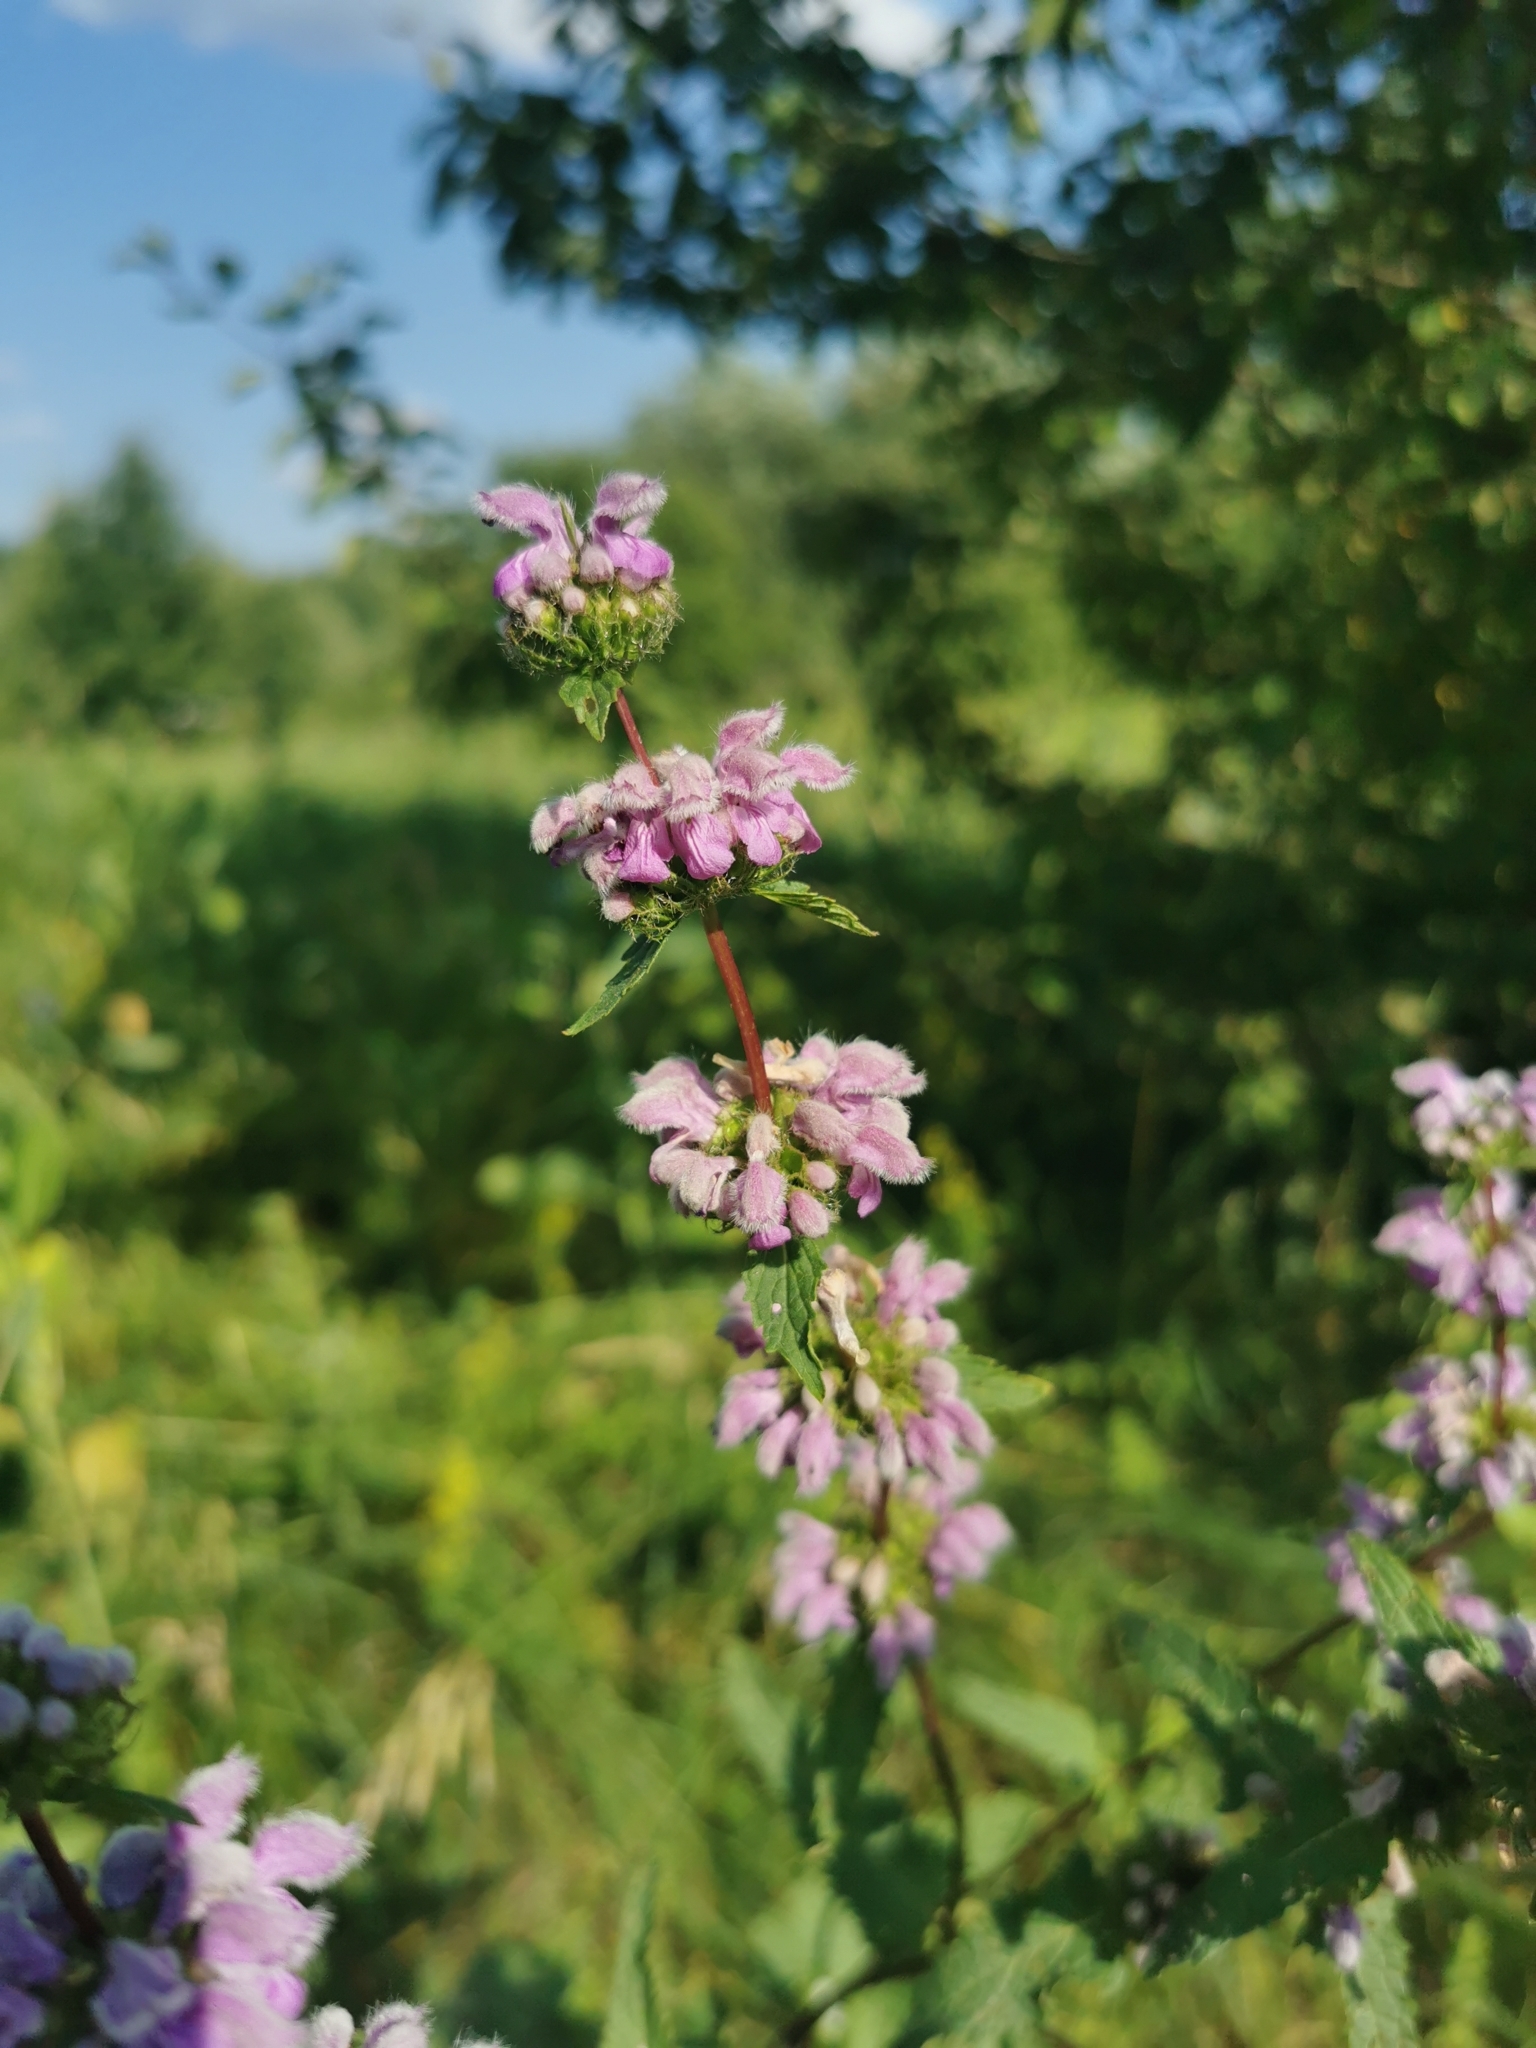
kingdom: Plantae
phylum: Tracheophyta
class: Magnoliopsida
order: Lamiales
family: Lamiaceae
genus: Phlomoides
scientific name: Phlomoides tuberosa
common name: Tuberous jerusalem sage
